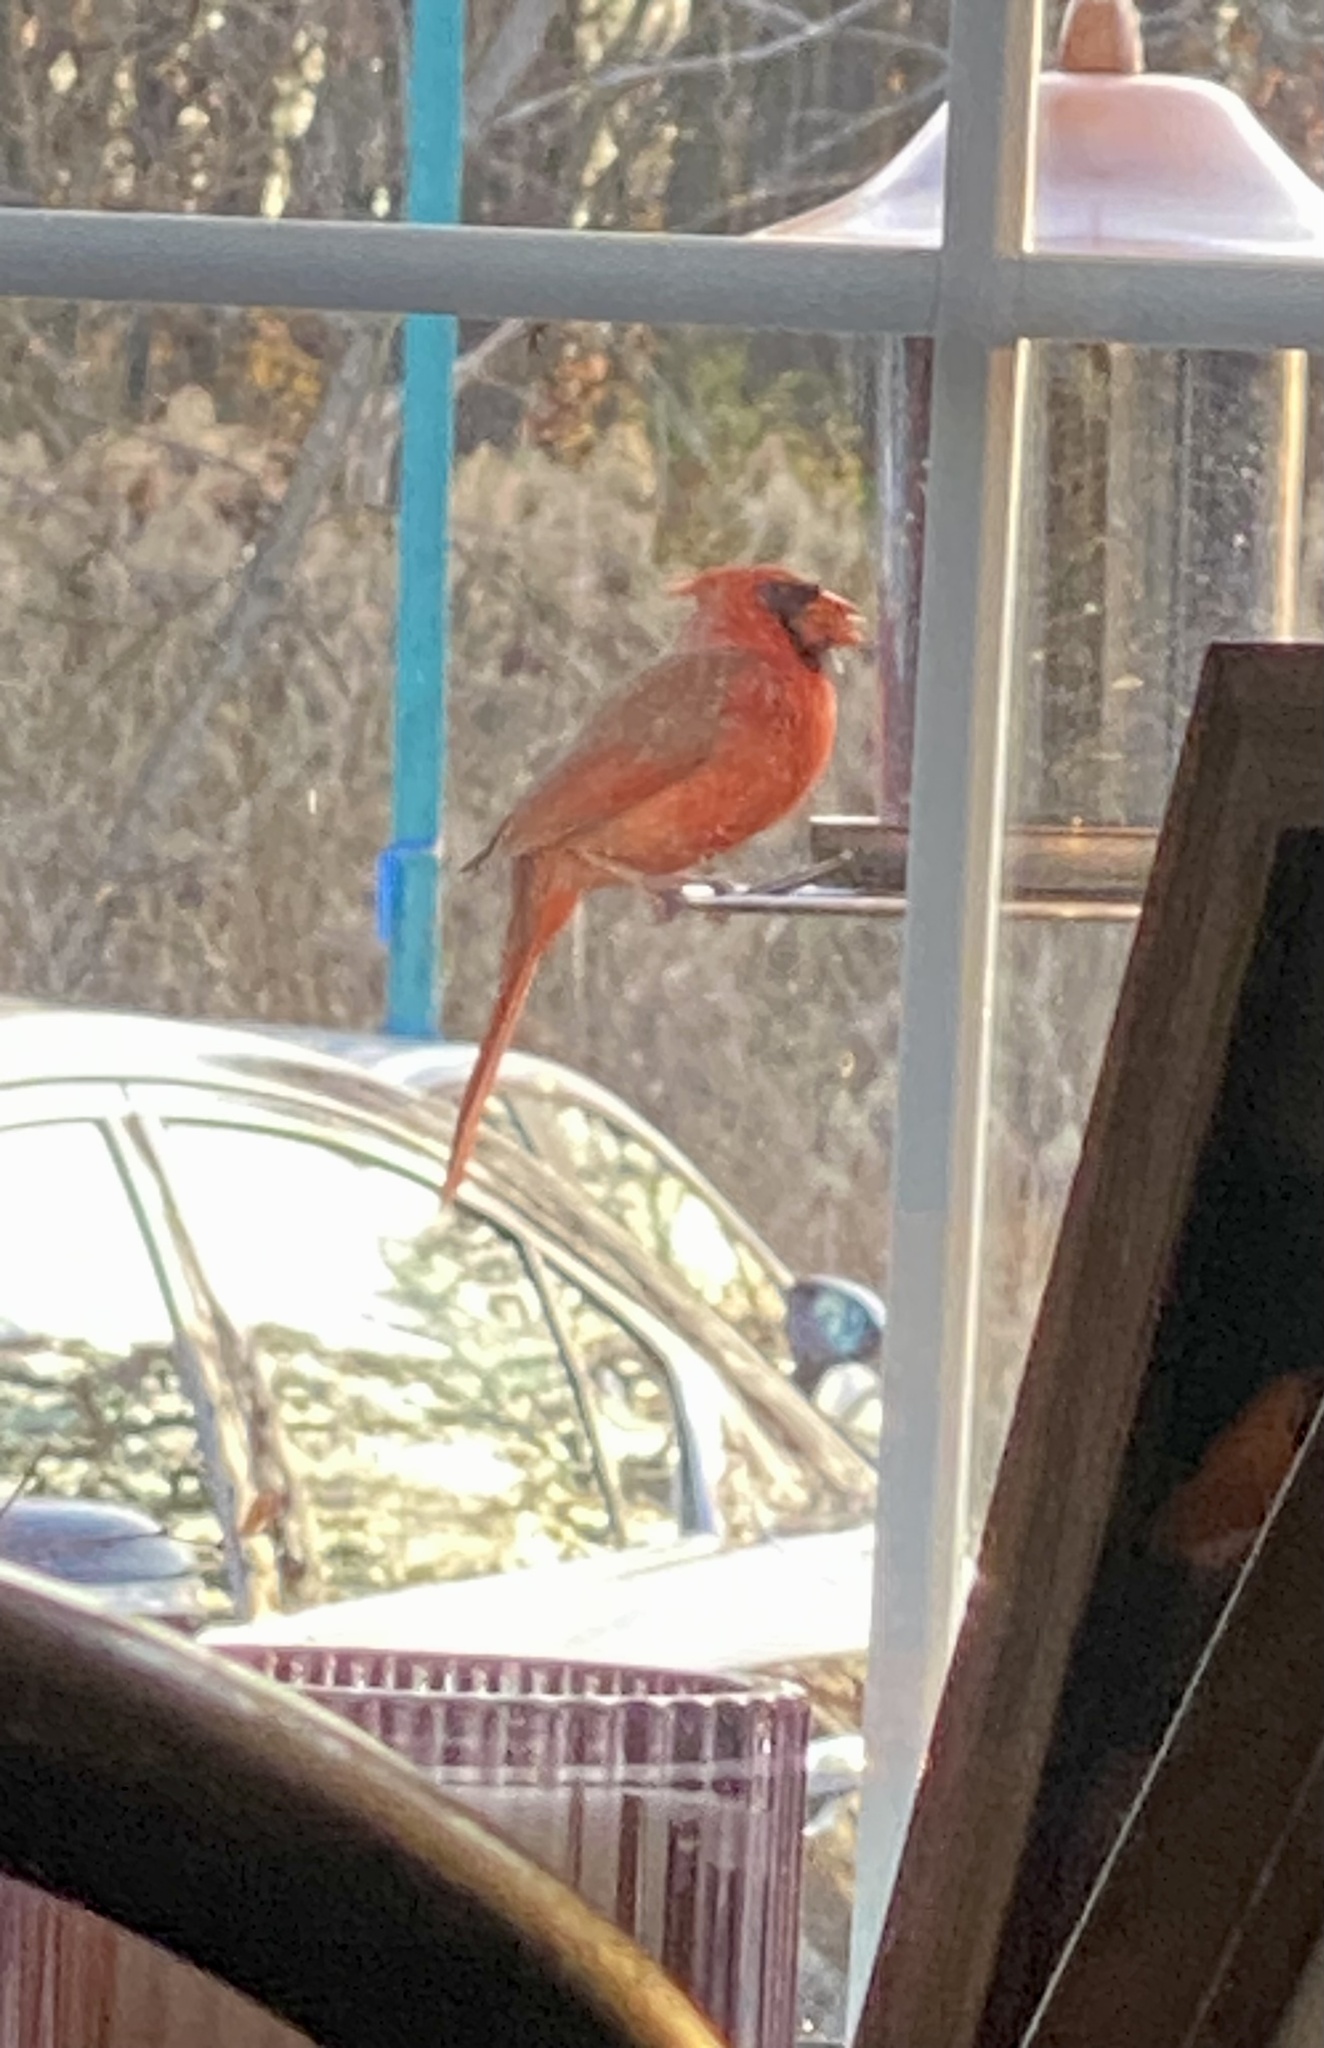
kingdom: Animalia
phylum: Chordata
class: Aves
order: Passeriformes
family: Cardinalidae
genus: Cardinalis
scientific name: Cardinalis cardinalis
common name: Northern cardinal
